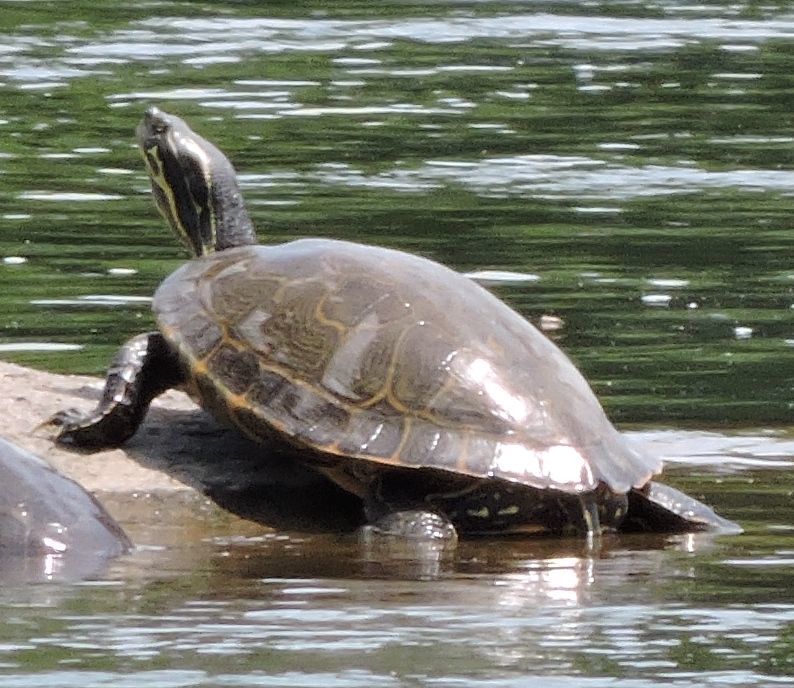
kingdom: Animalia
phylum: Chordata
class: Testudines
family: Emydidae
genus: Pseudemys
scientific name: Pseudemys concinna
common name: Eastern river cooter
